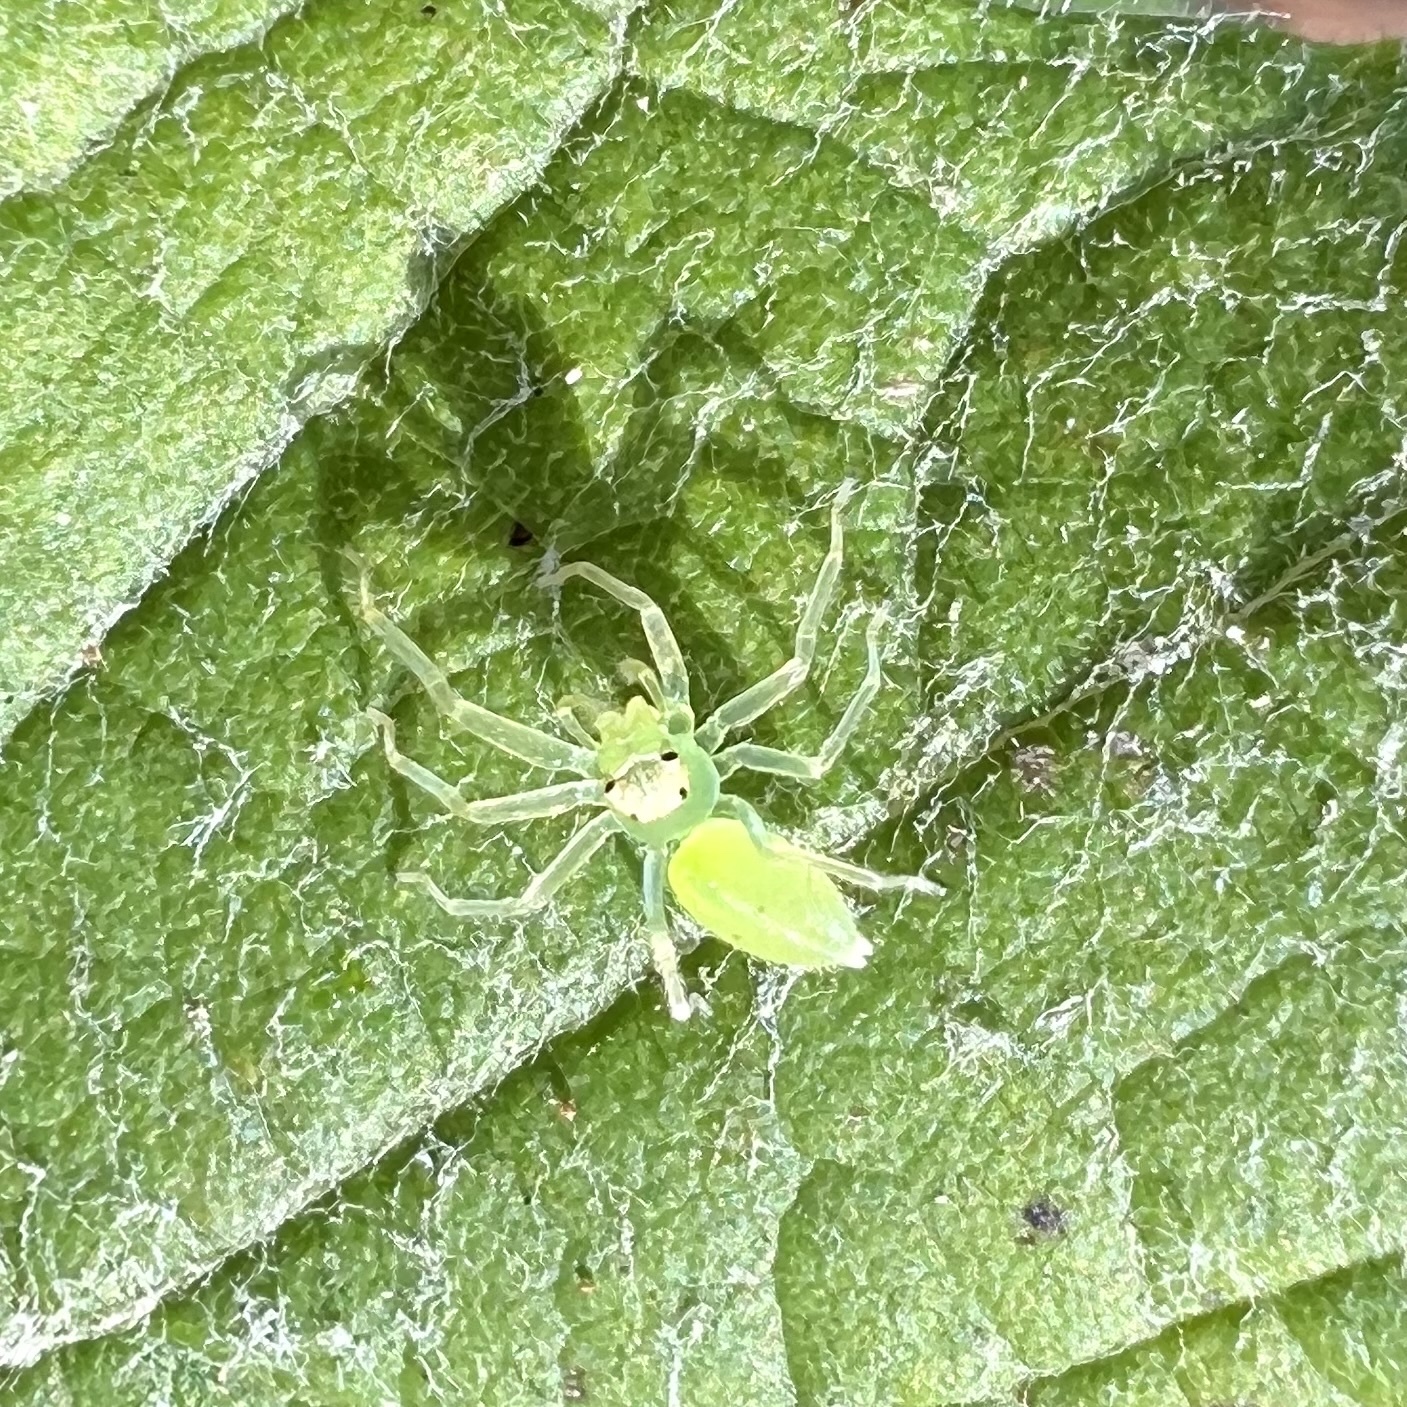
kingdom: Animalia
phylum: Arthropoda
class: Arachnida
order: Araneae
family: Salticidae
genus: Lyssomanes
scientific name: Lyssomanes viridis
